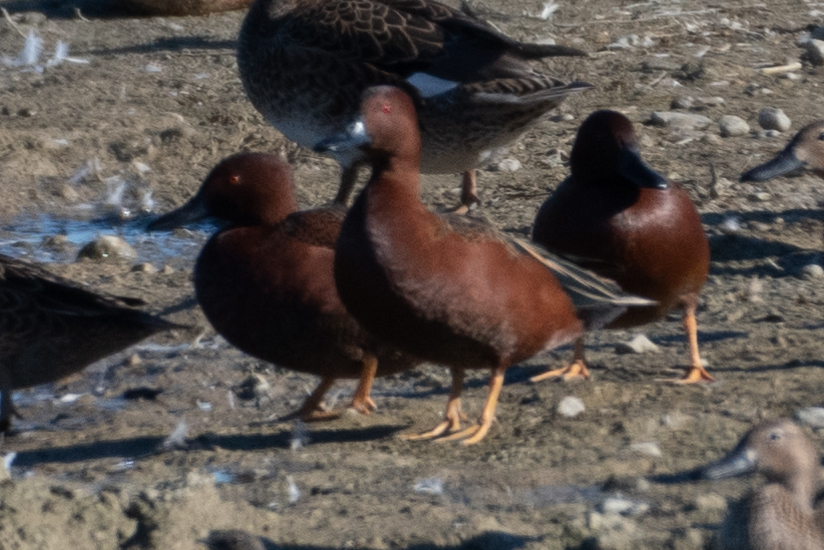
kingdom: Animalia
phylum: Chordata
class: Aves
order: Anseriformes
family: Anatidae
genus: Spatula
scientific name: Spatula cyanoptera
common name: Cinnamon teal
